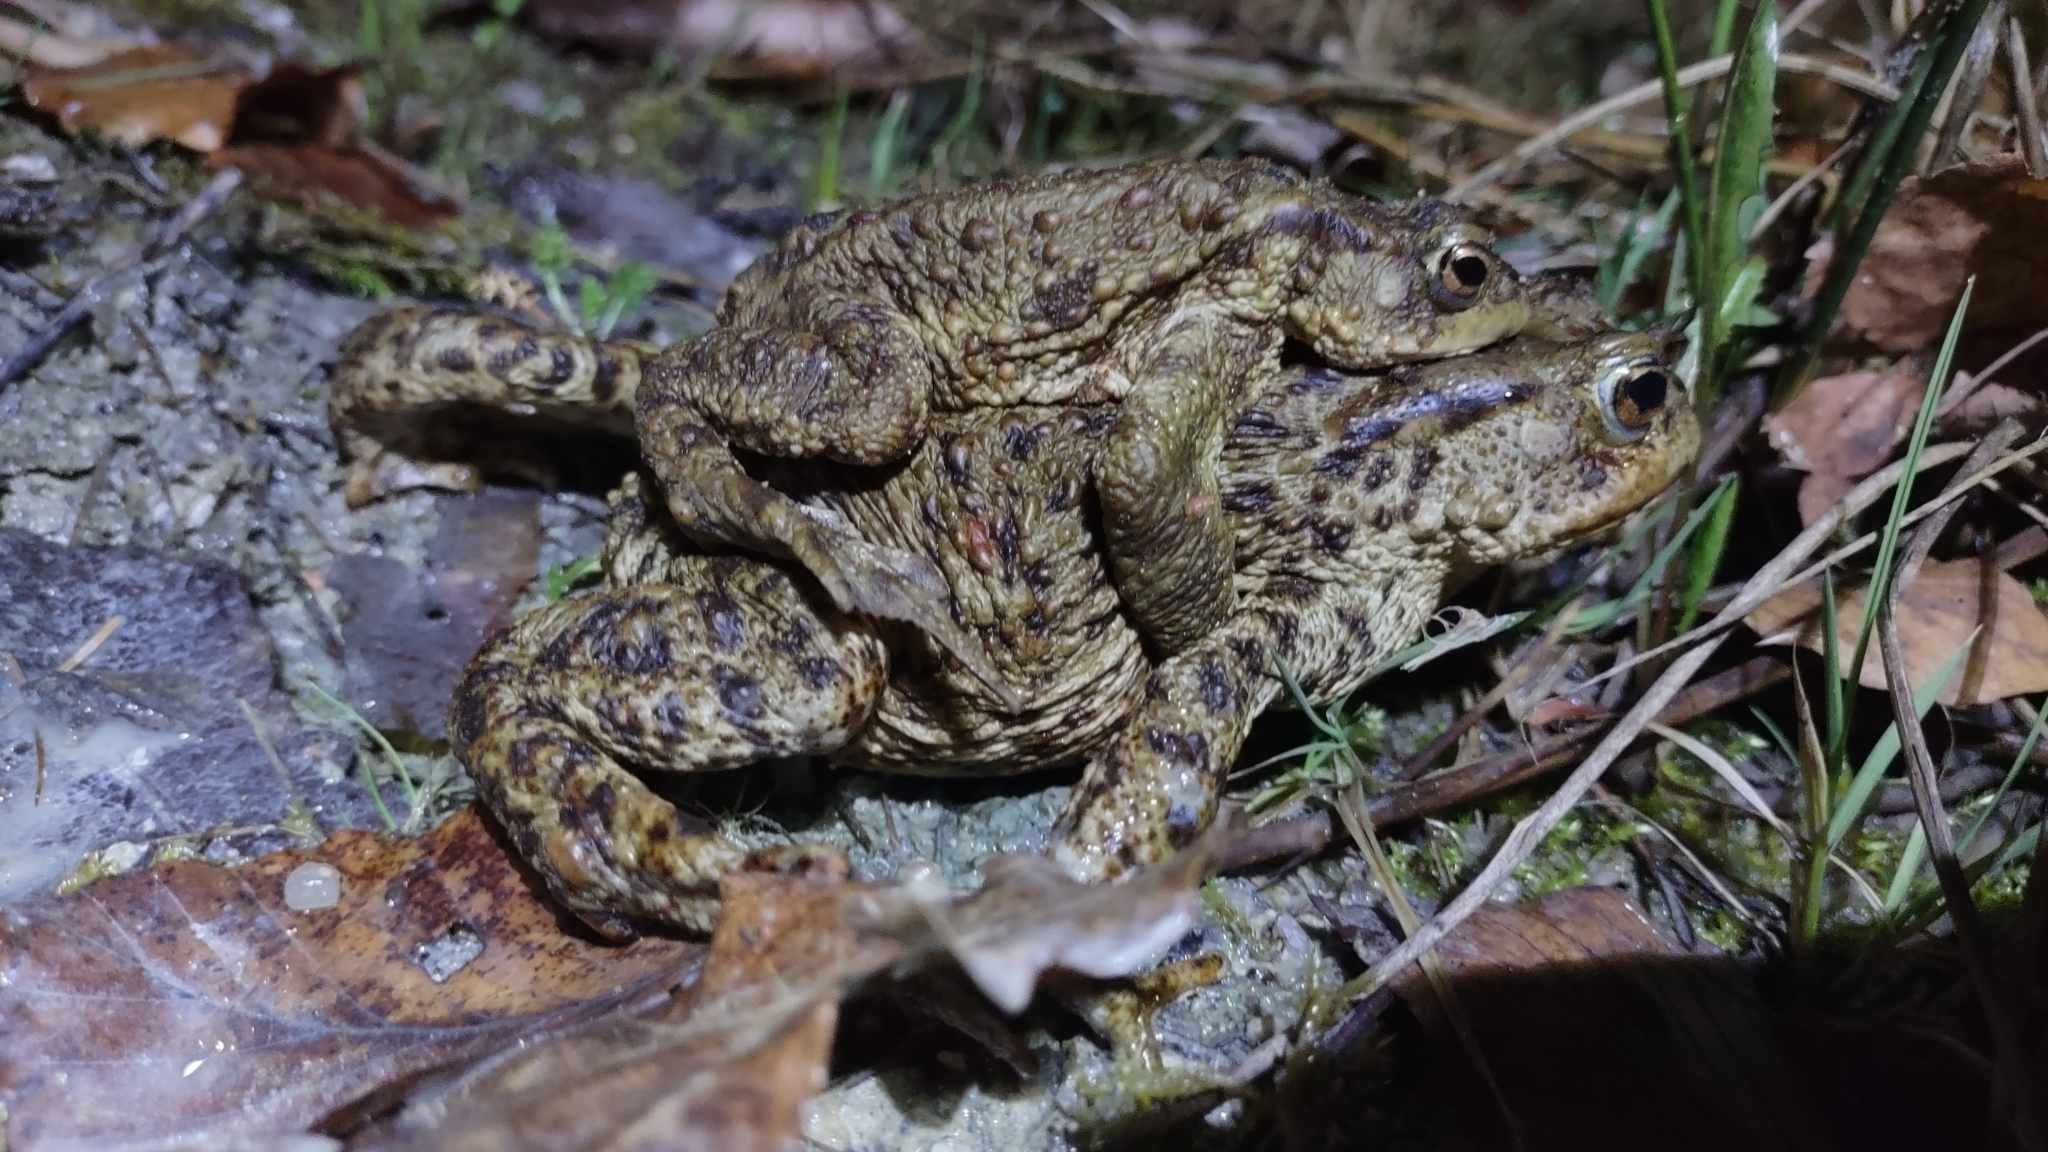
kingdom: Animalia
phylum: Chordata
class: Amphibia
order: Anura
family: Bufonidae
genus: Bufo
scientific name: Bufo bufo
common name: Common toad
